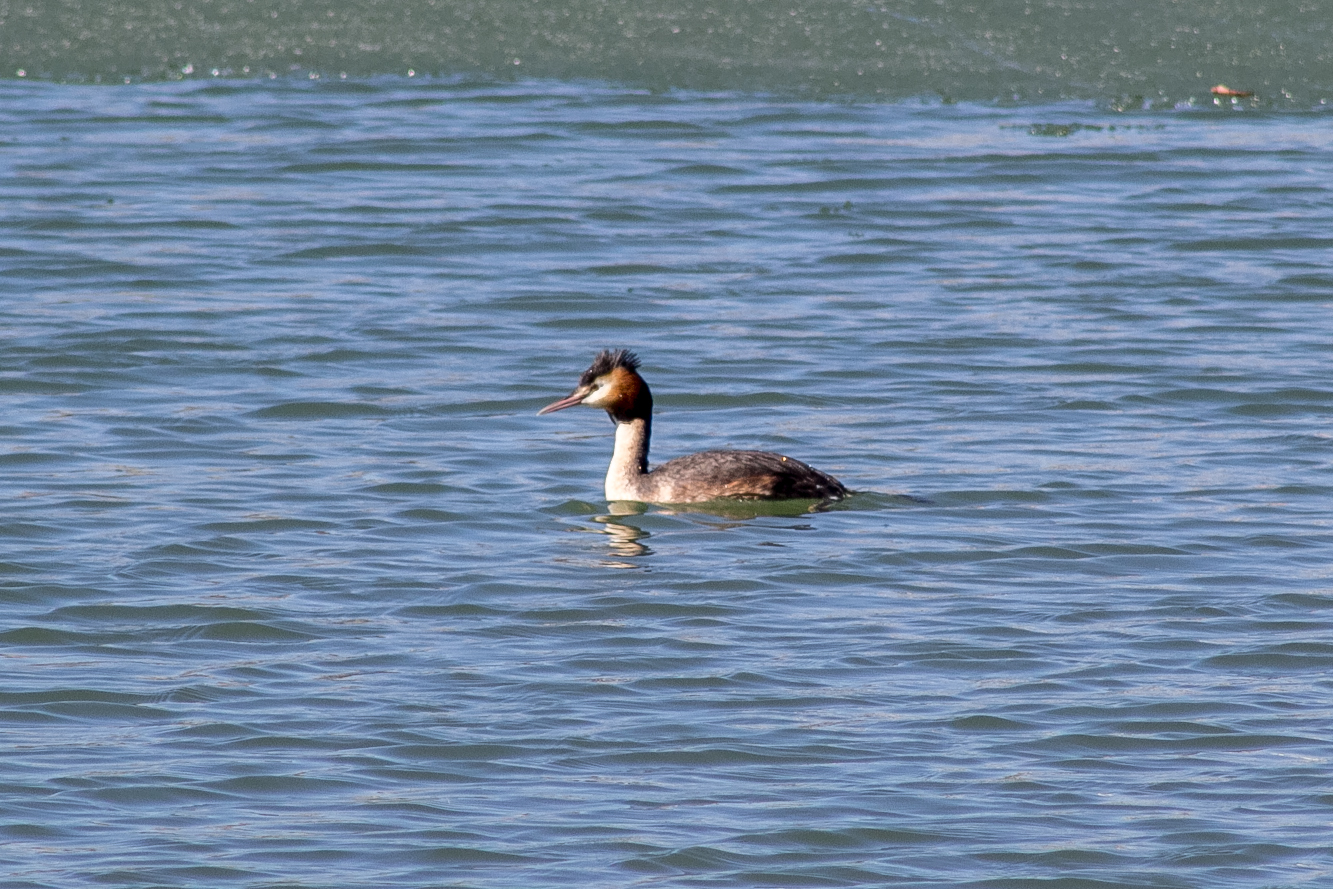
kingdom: Animalia
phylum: Chordata
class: Aves
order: Podicipediformes
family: Podicipedidae
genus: Podiceps
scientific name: Podiceps cristatus
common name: Great crested grebe
